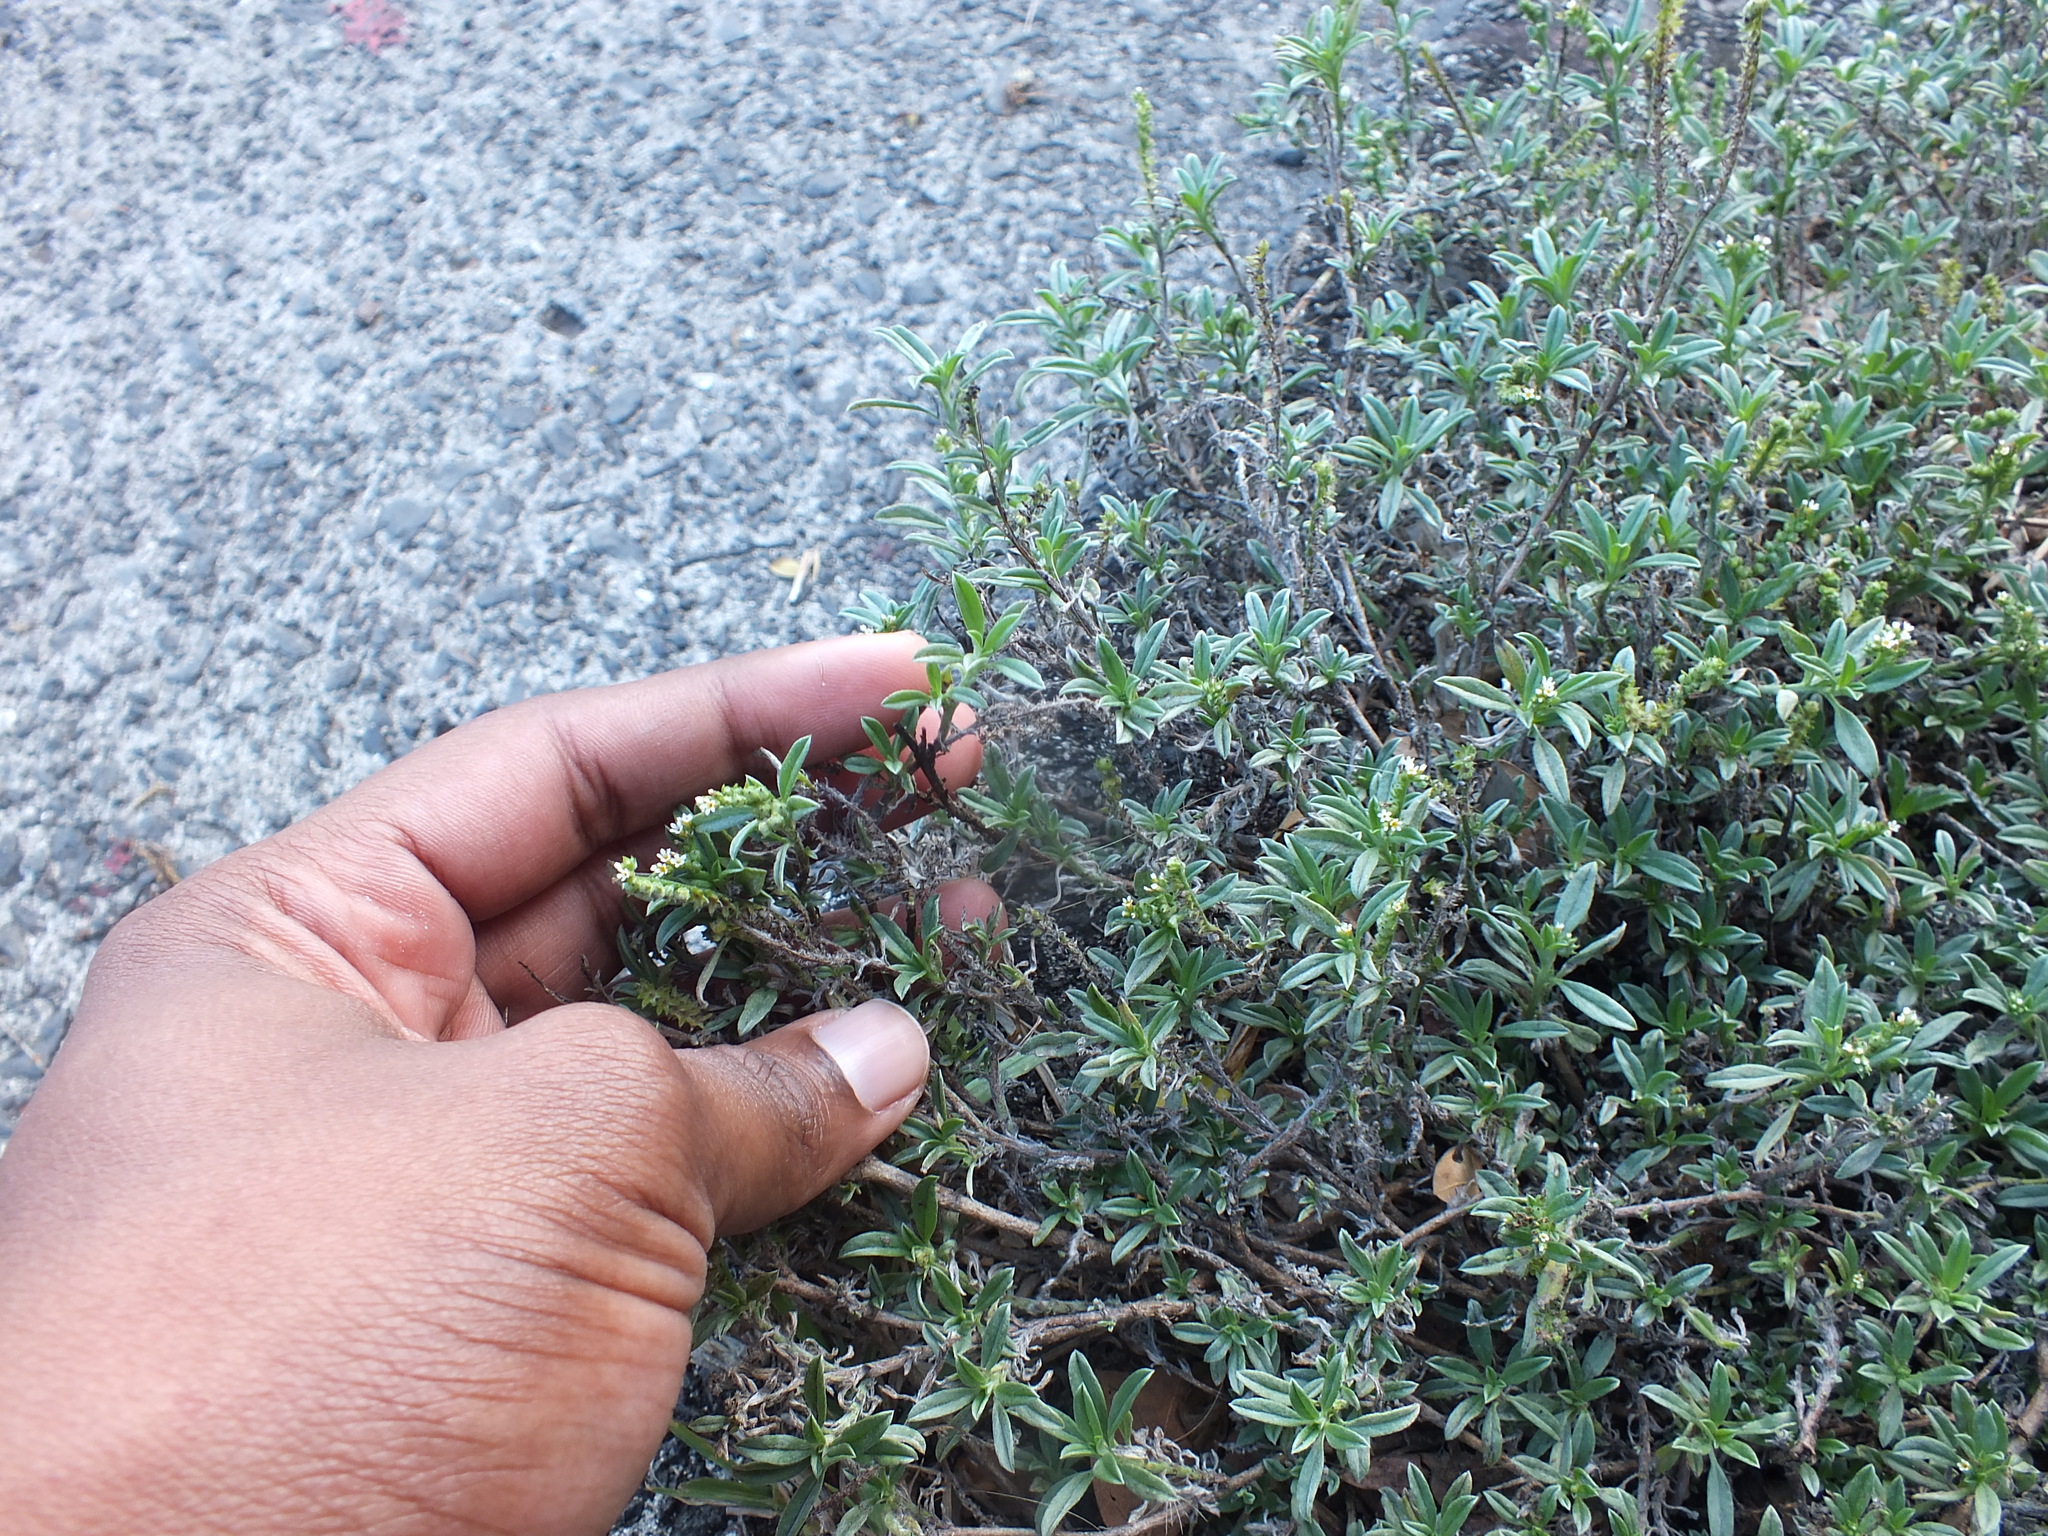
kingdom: Plantae
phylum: Tracheophyta
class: Magnoliopsida
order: Boraginales
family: Heliotropiaceae
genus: Euploca
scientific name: Euploca procumbens
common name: Fourspike heliotrope
